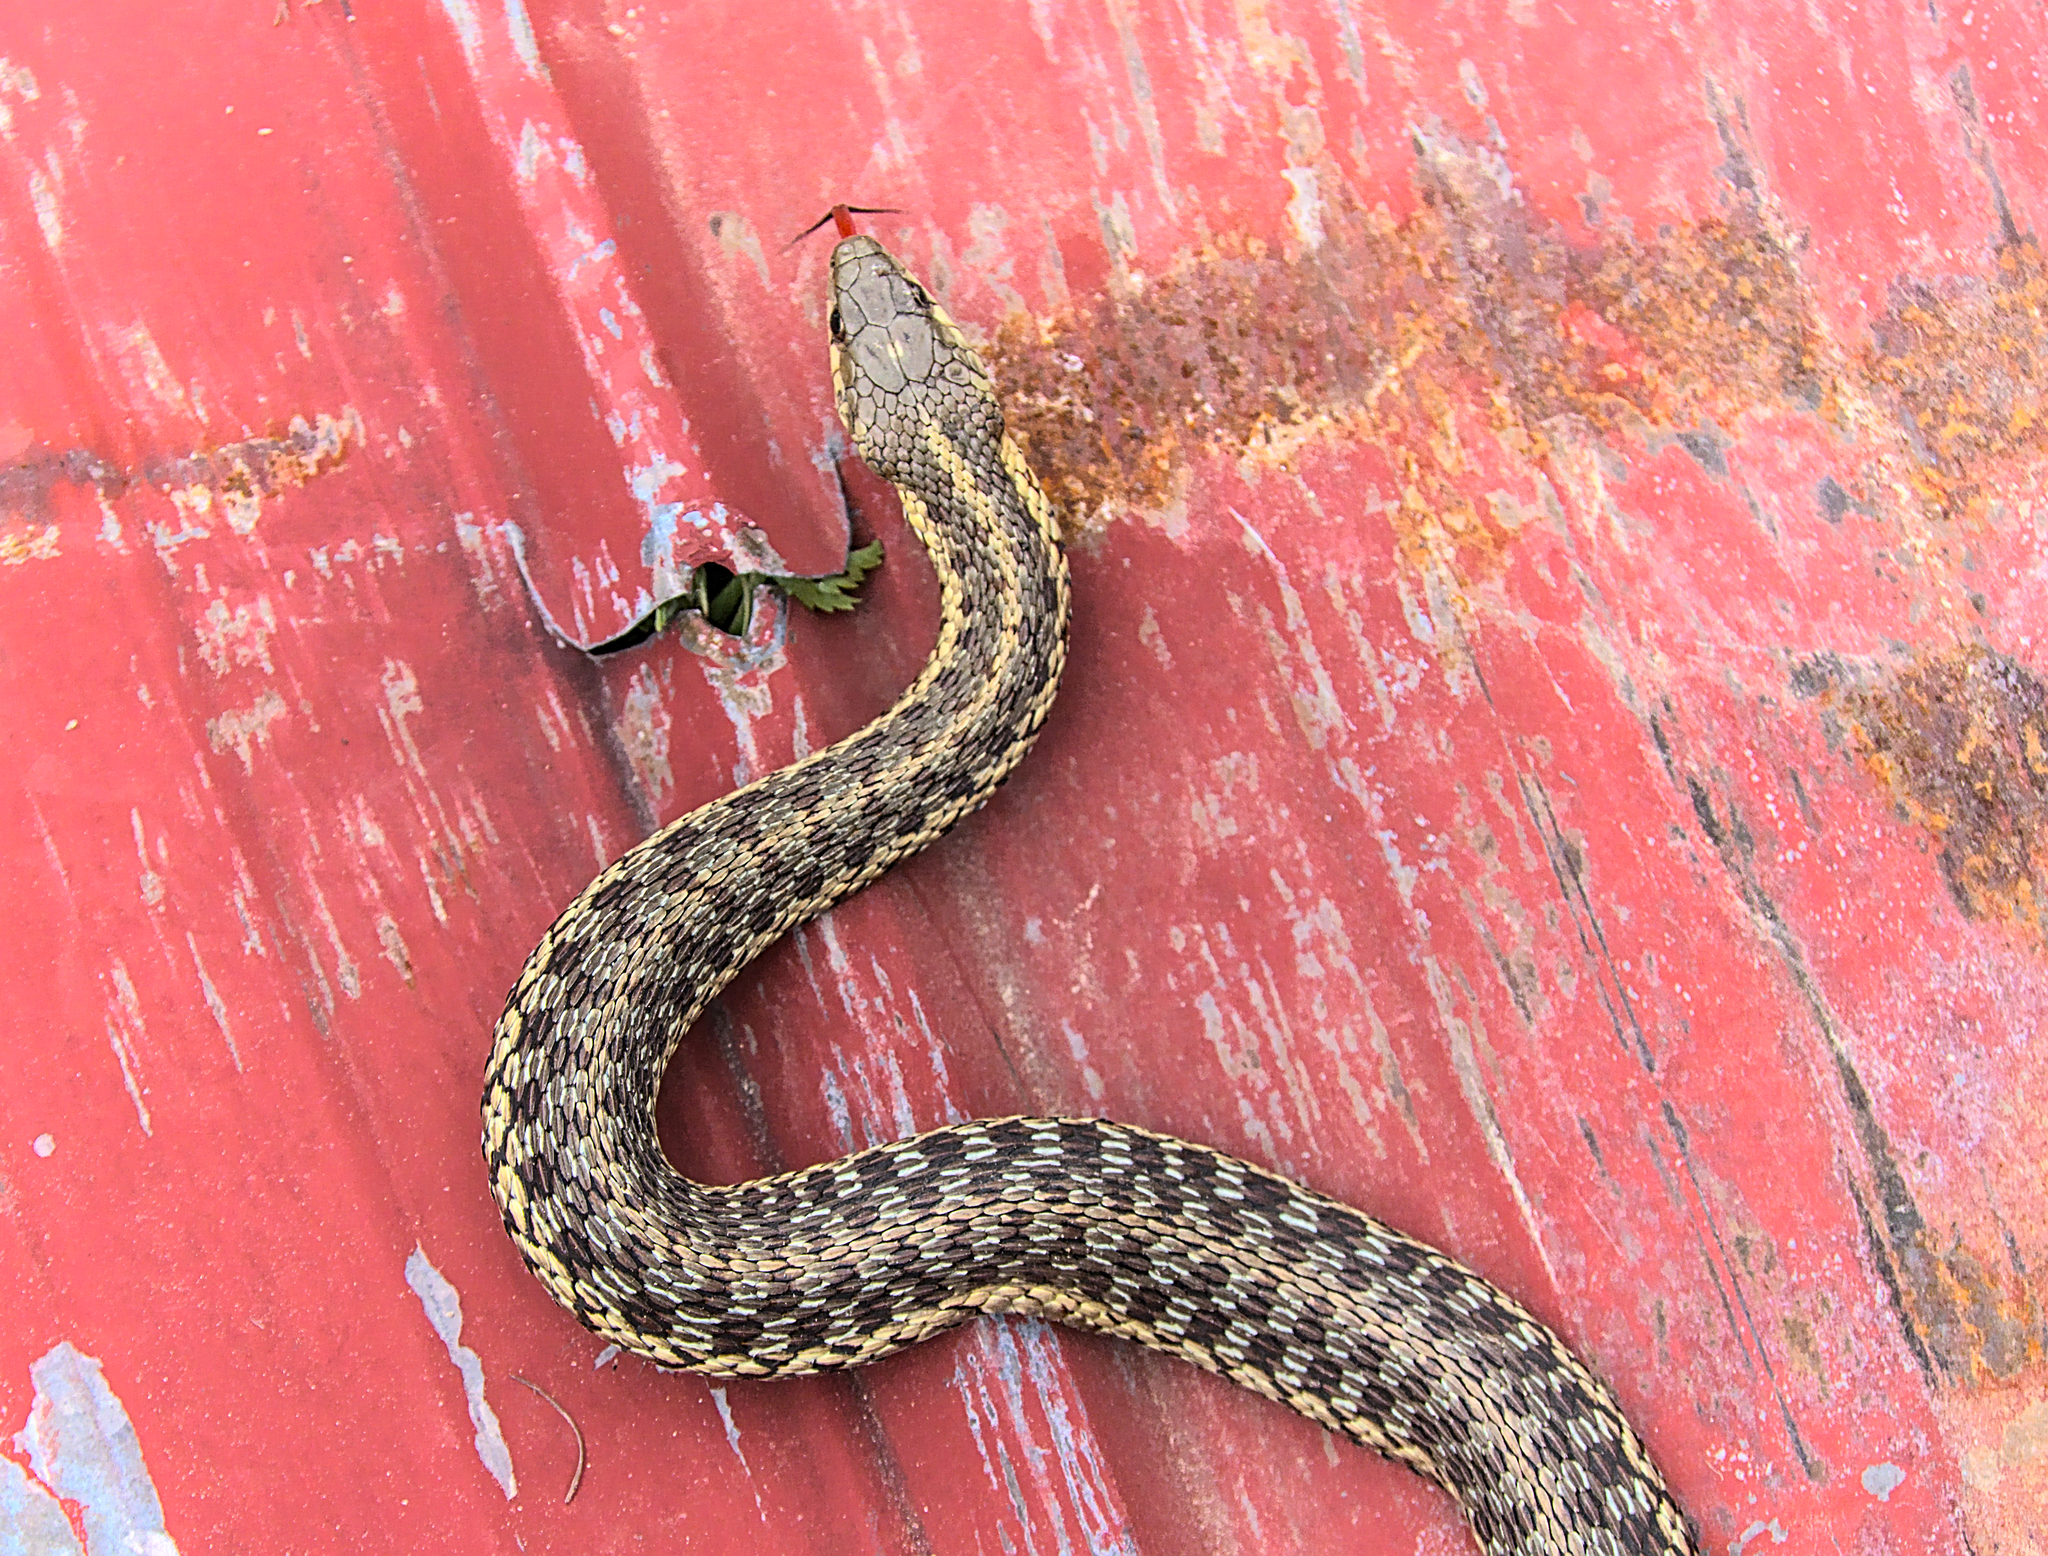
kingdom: Animalia
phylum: Chordata
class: Squamata
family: Colubridae
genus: Thamnophis
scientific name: Thamnophis sirtalis
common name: Common garter snake
